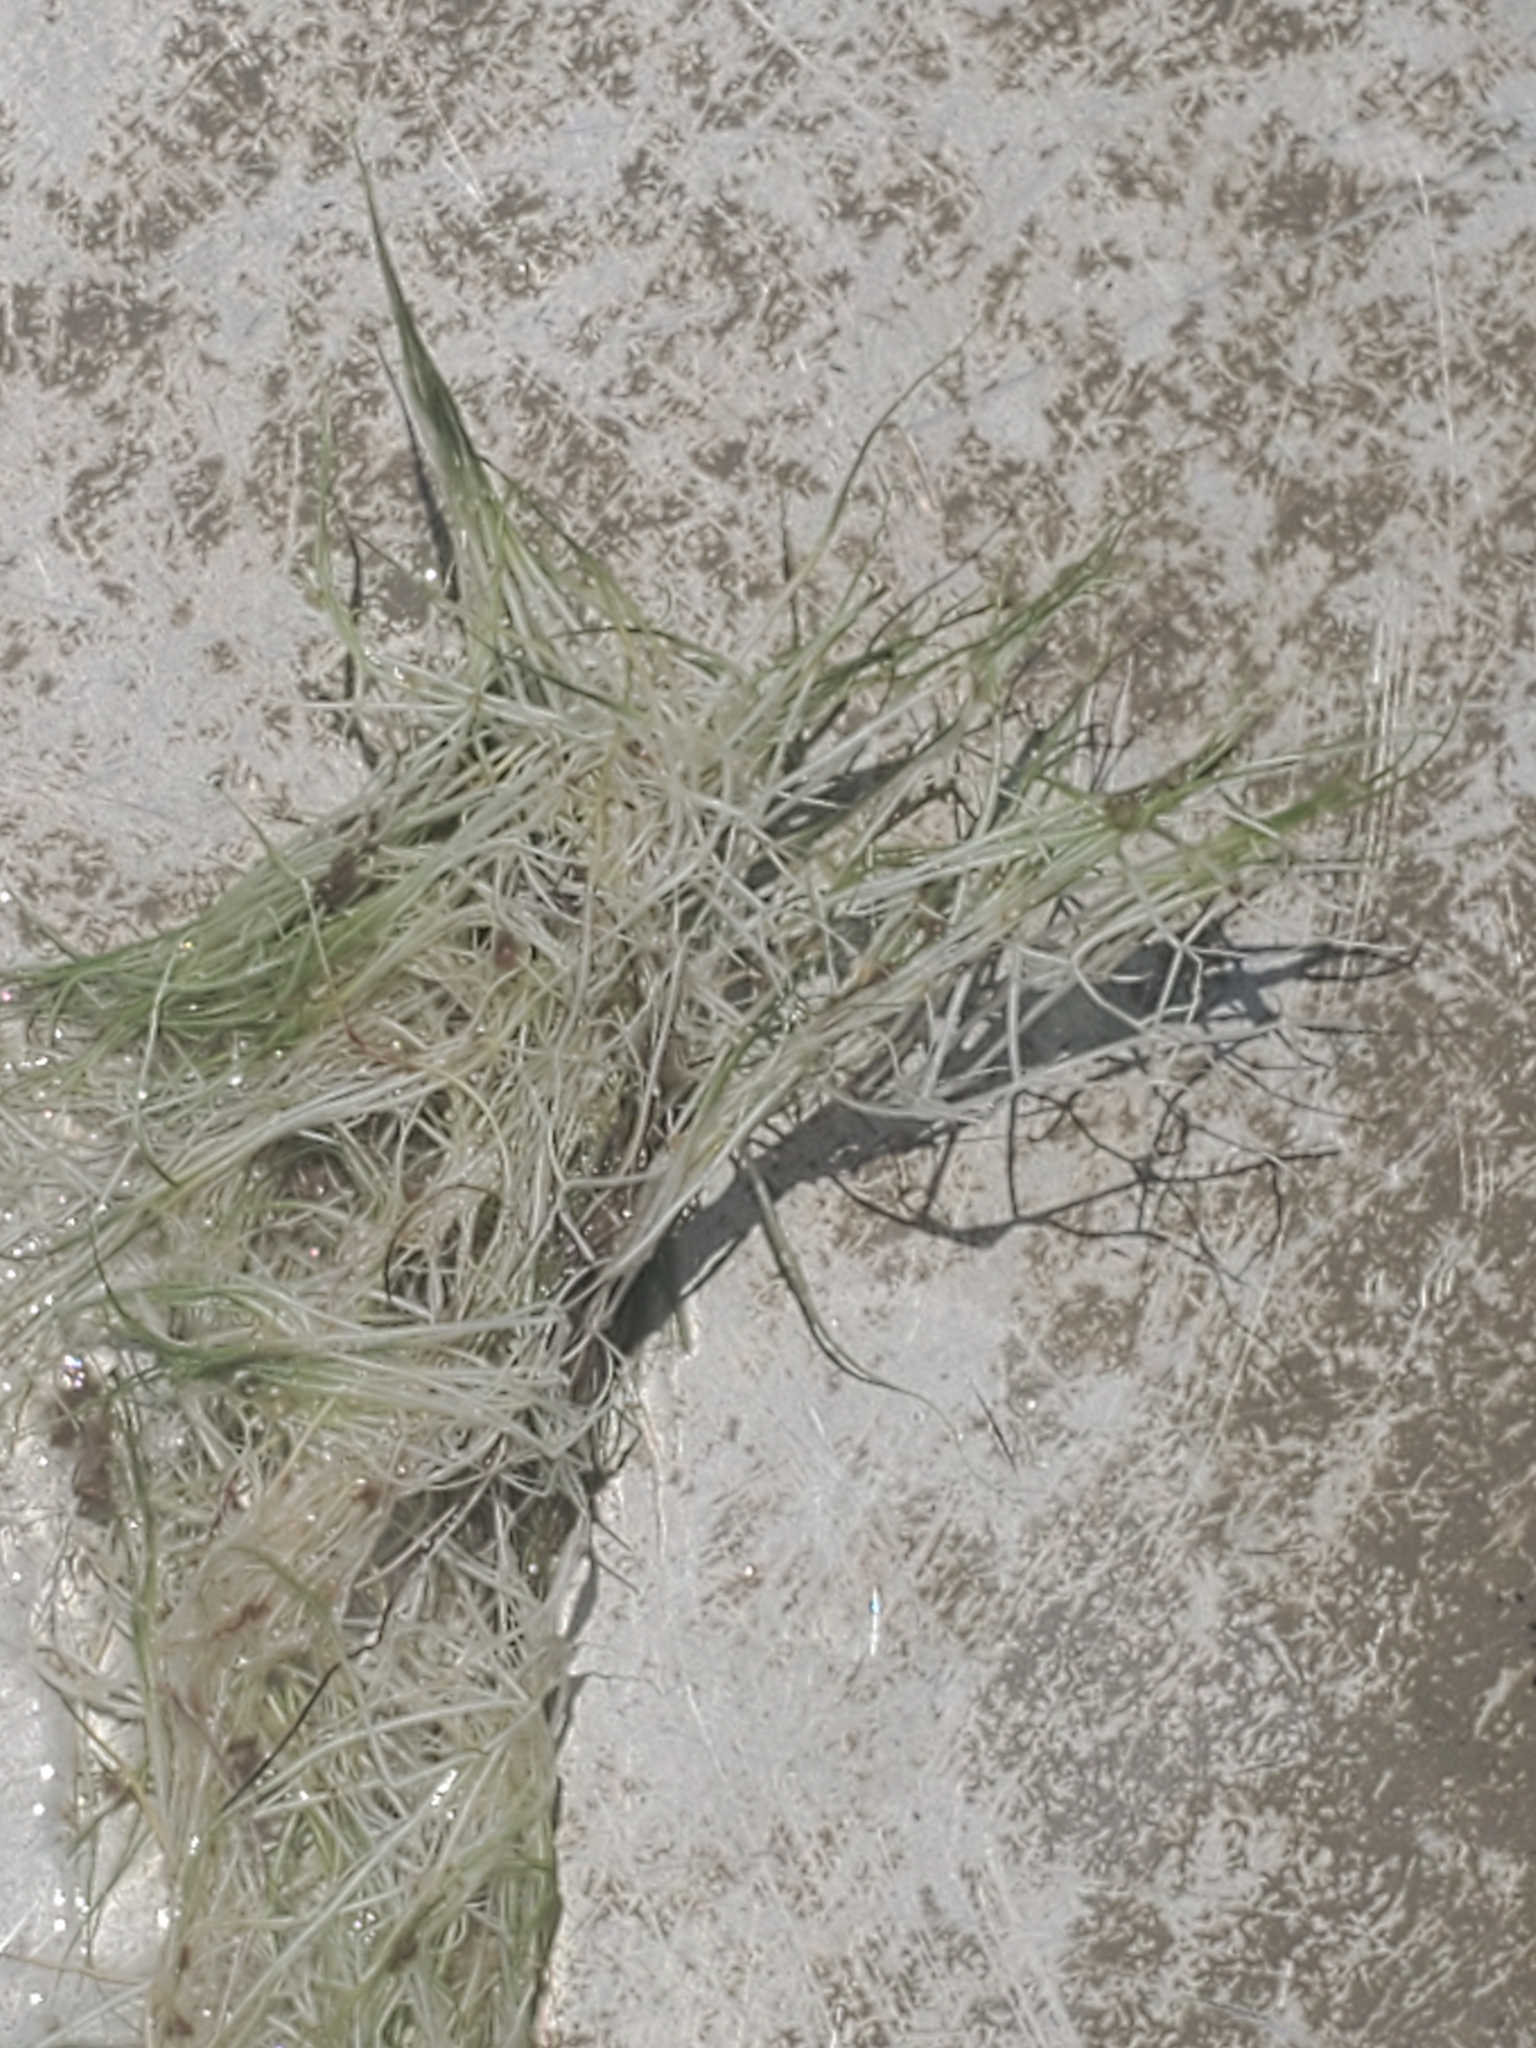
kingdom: Plantae
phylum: Tracheophyta
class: Liliopsida
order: Alismatales
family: Potamogetonaceae
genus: Zannichellia
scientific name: Zannichellia palustris
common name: Horned pondweed
